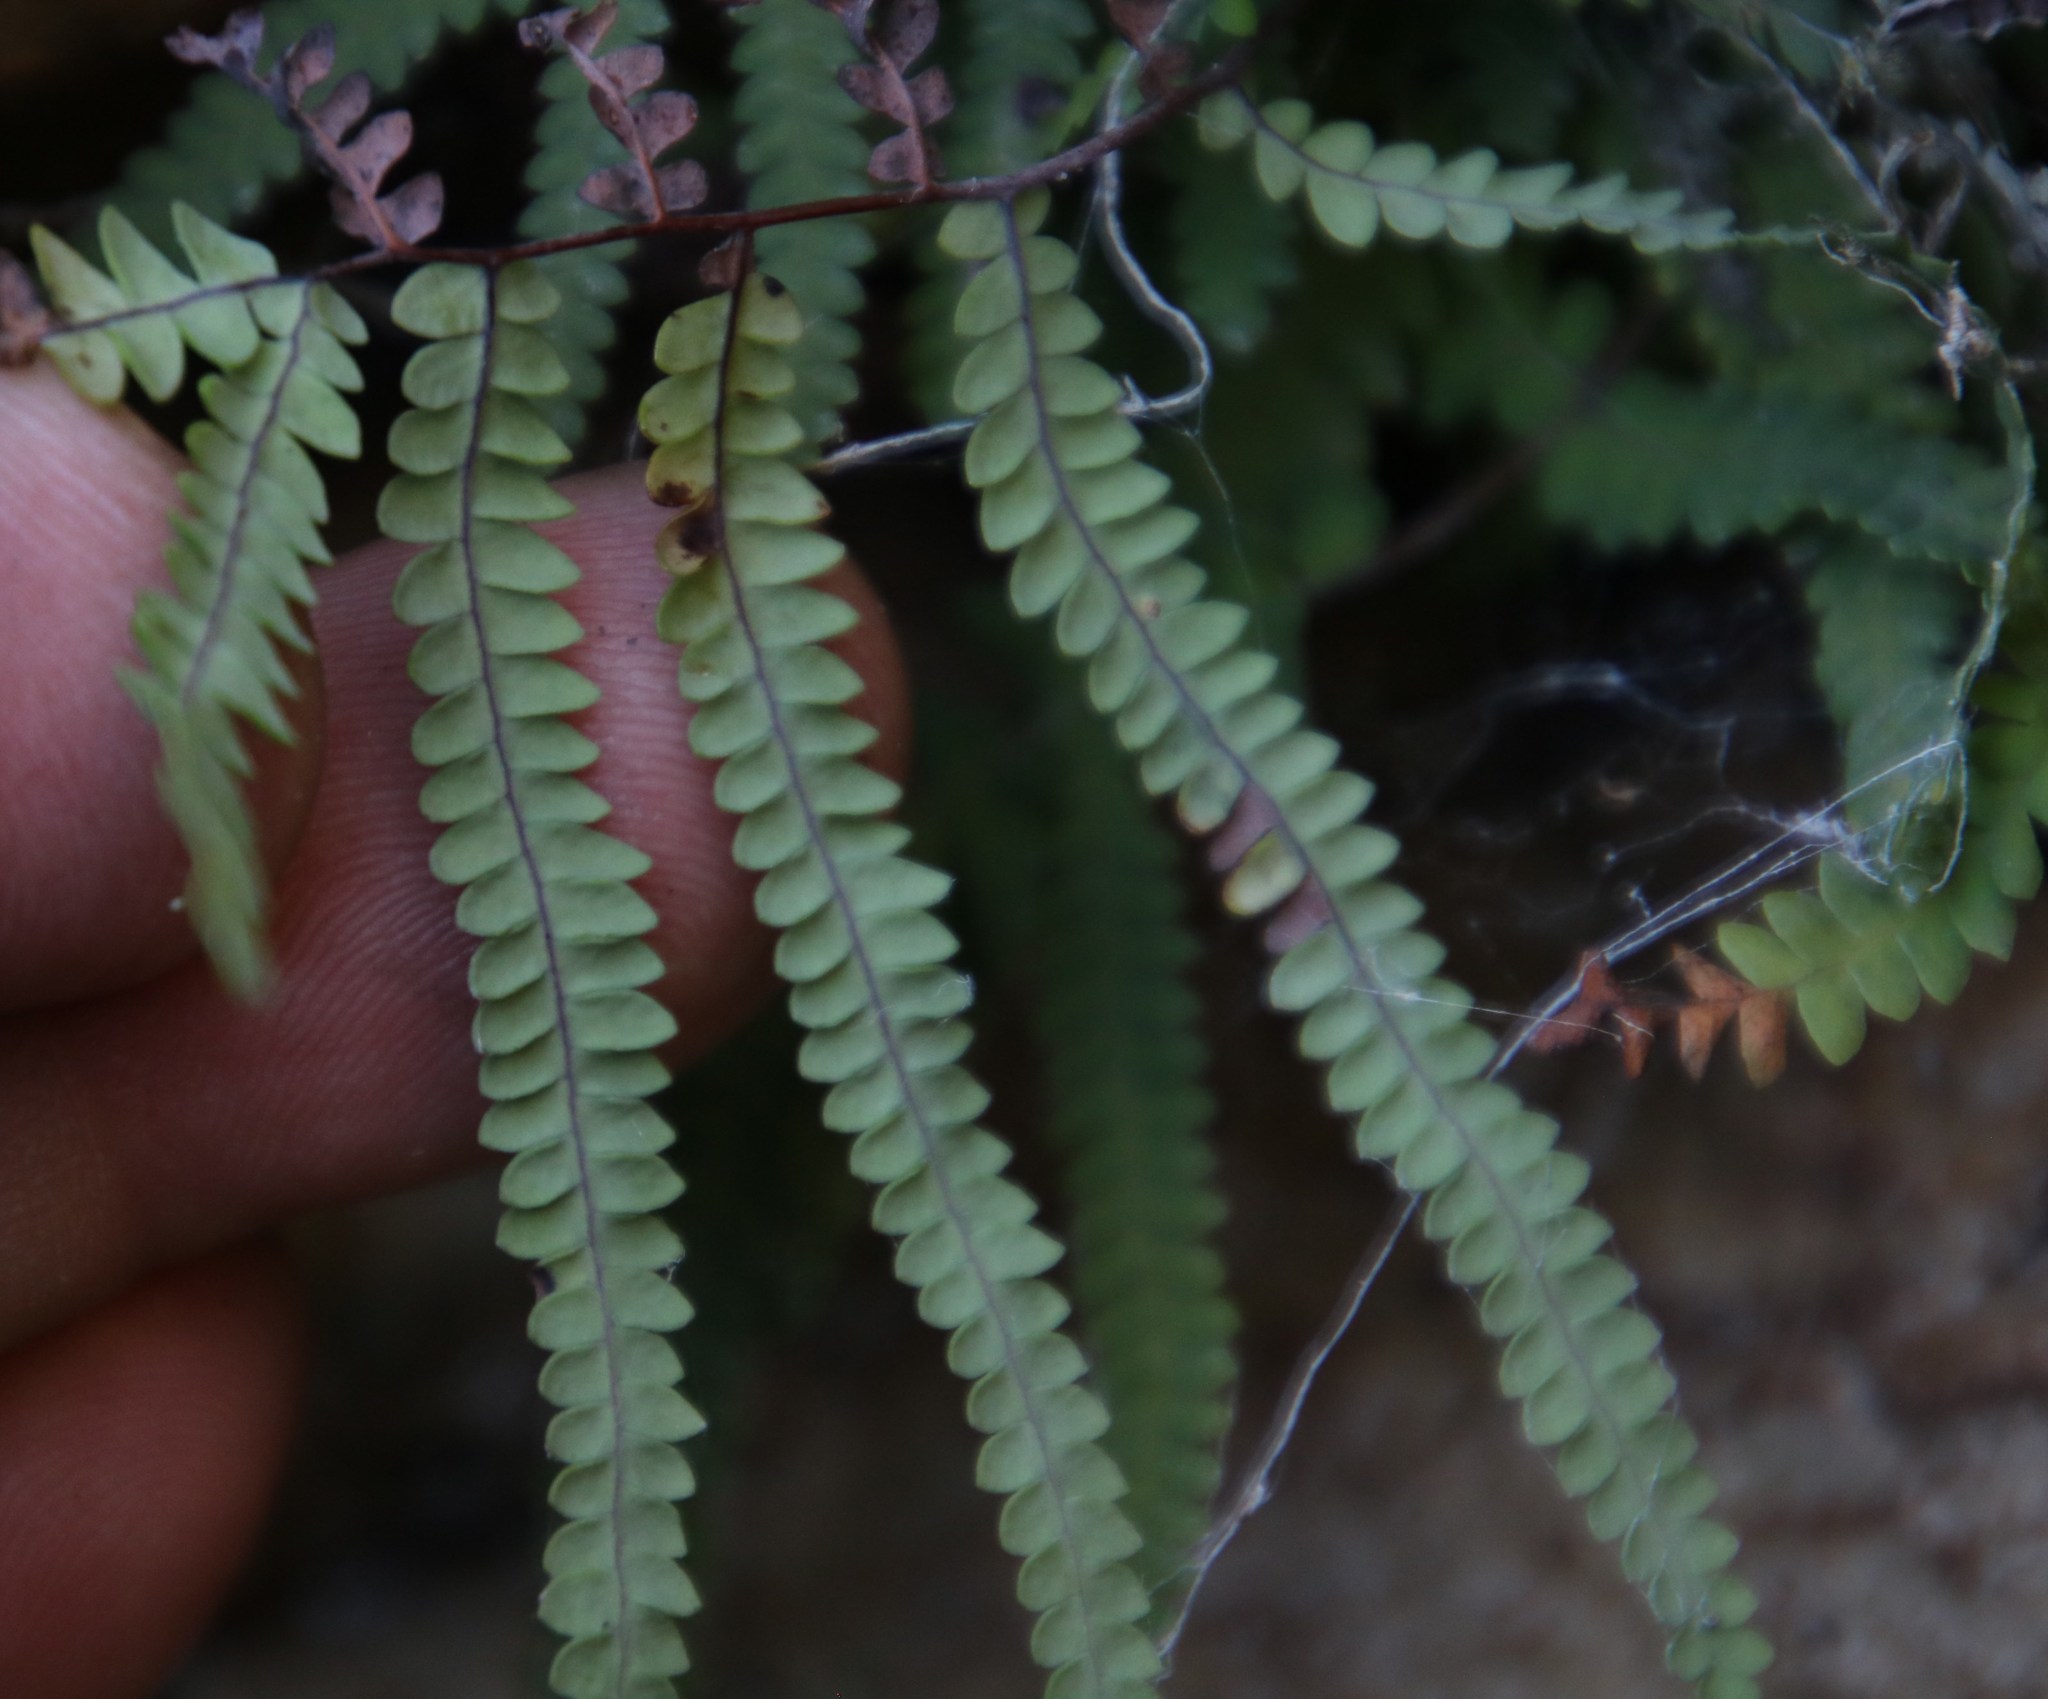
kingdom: Plantae
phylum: Tracheophyta
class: Polypodiopsida
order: Gleicheniales
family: Gleicheniaceae
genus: Gleichenia
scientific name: Gleichenia polypodioides
